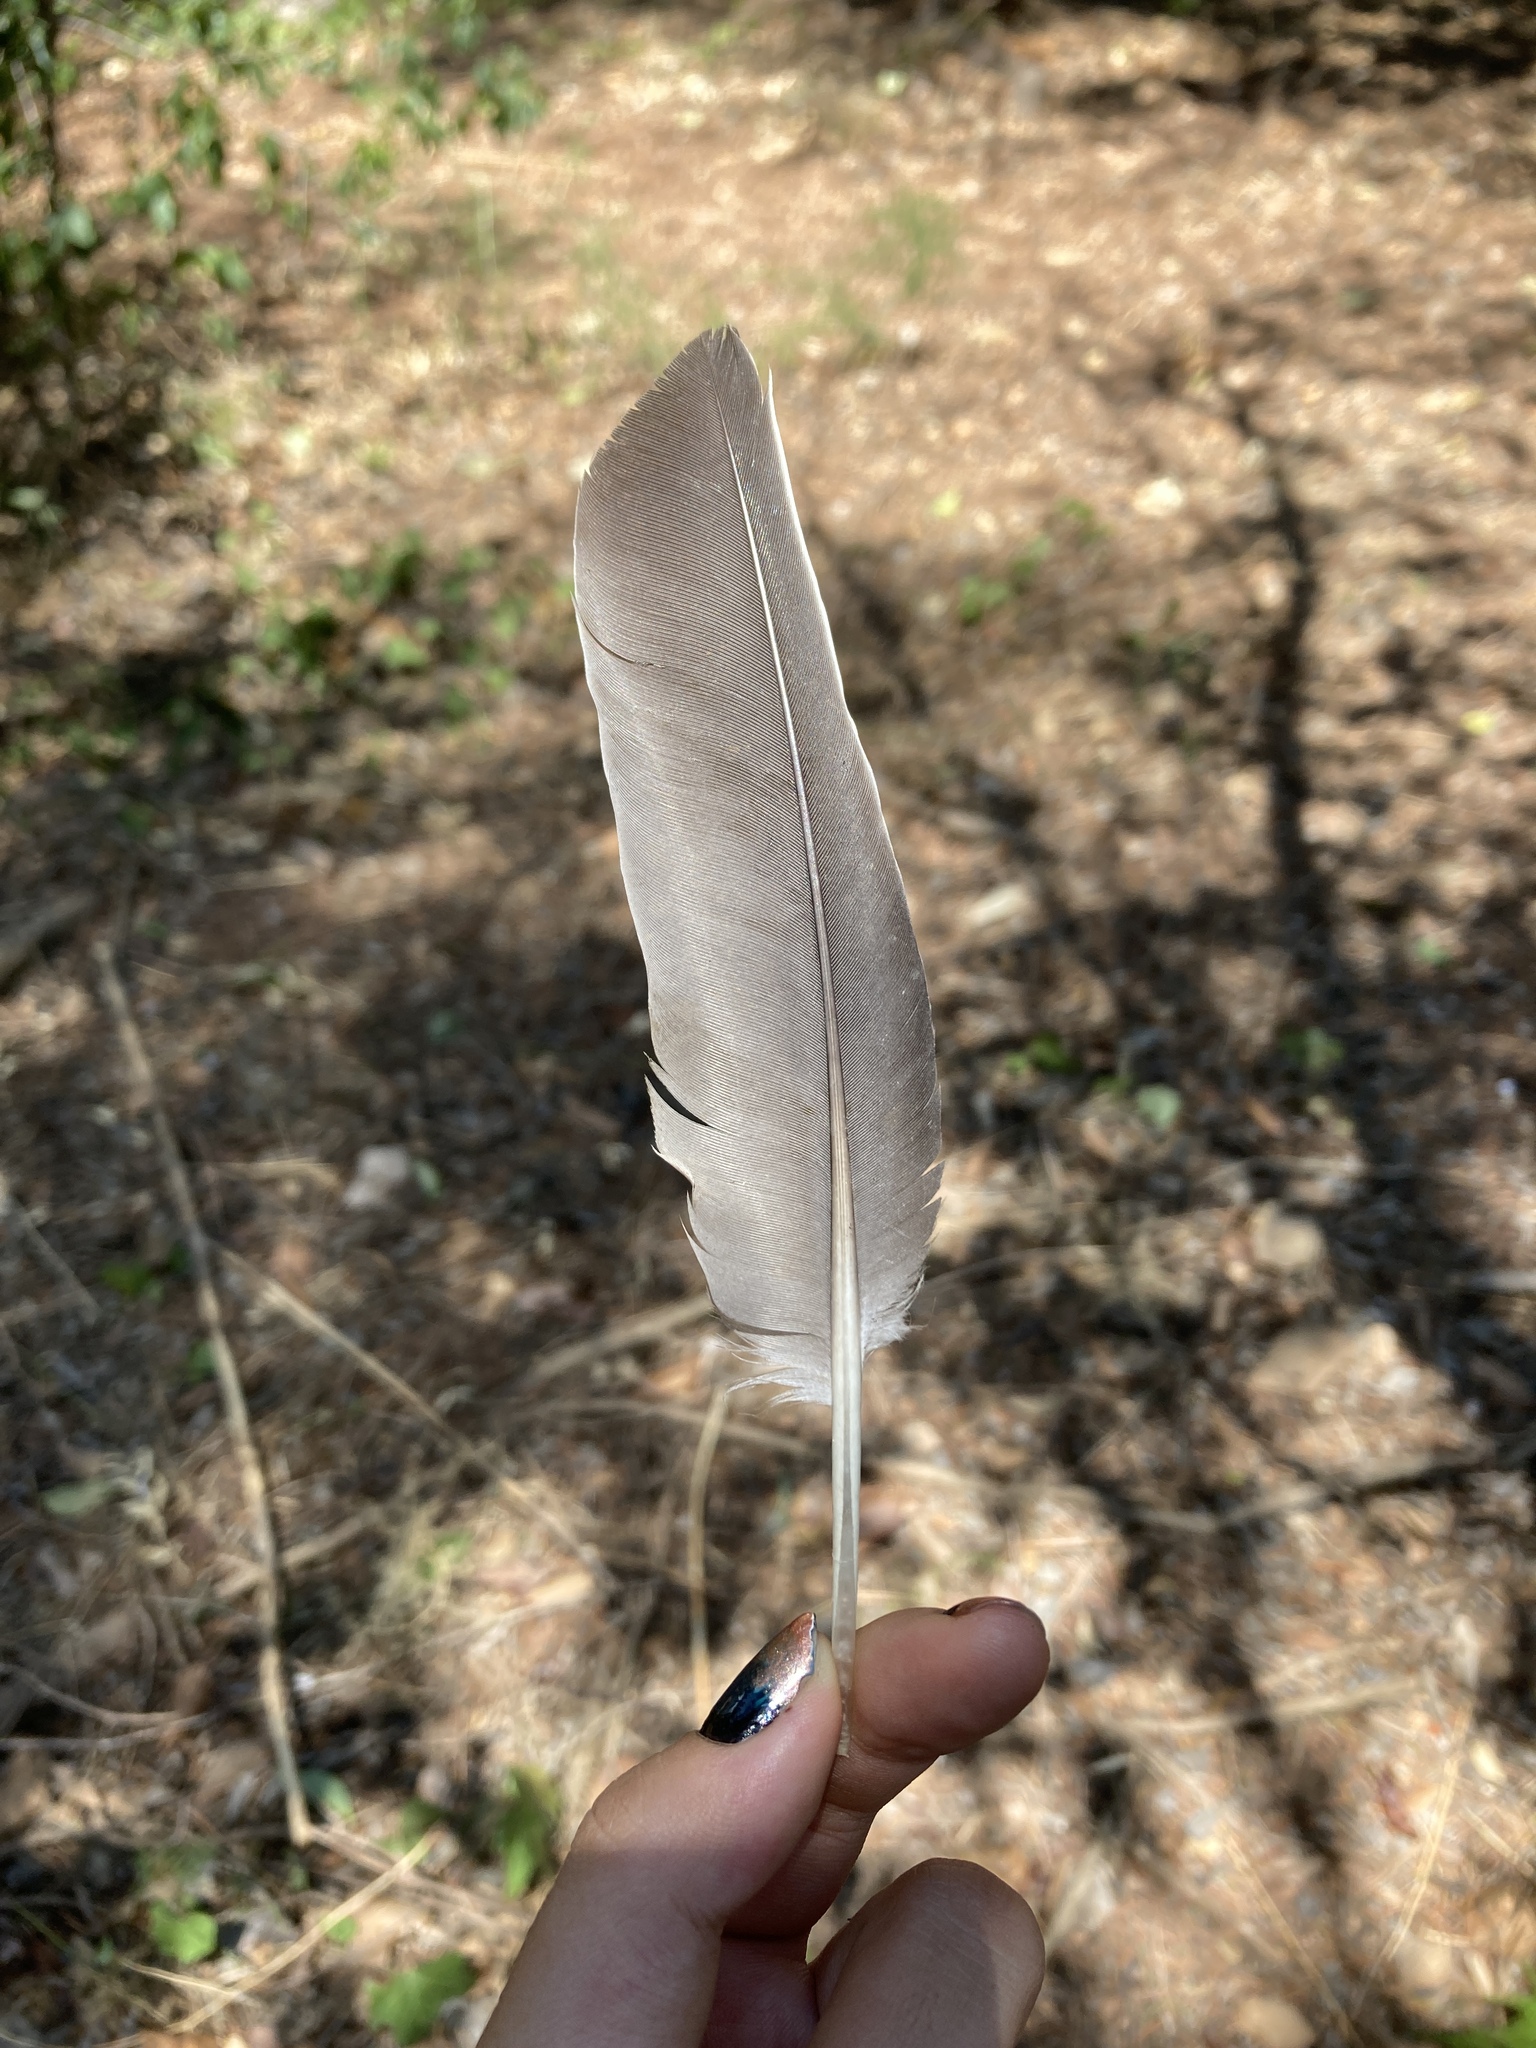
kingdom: Animalia
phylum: Chordata
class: Aves
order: Columbiformes
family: Columbidae
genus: Columba
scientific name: Columba palumbus
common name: Common wood pigeon
